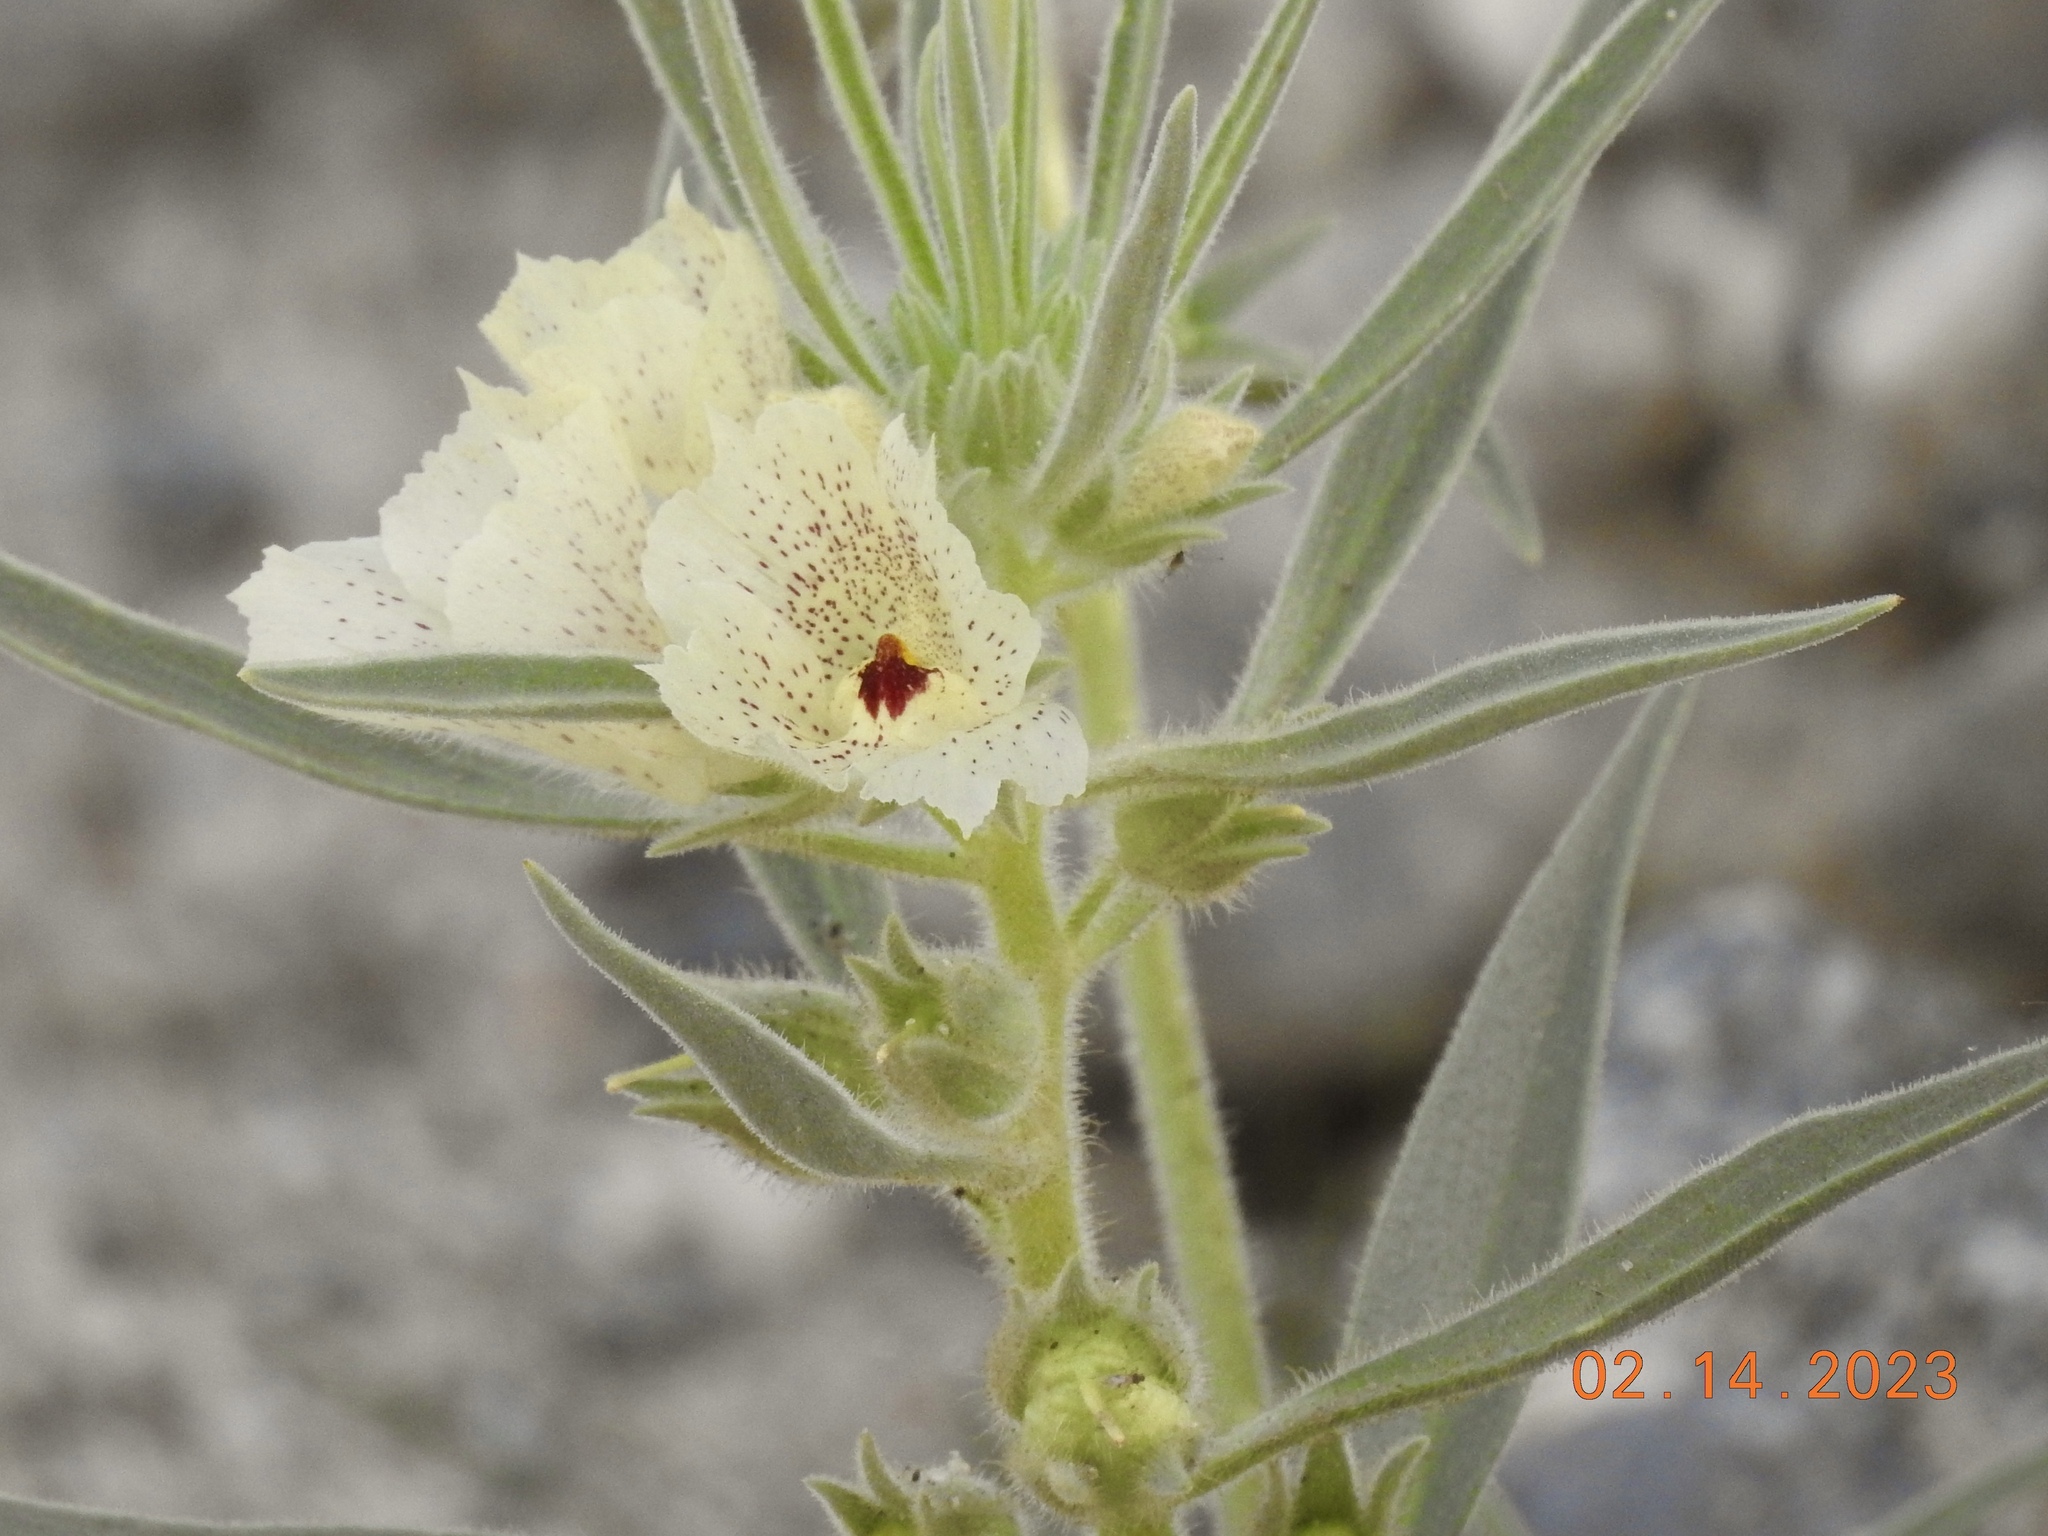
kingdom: Plantae
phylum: Tracheophyta
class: Magnoliopsida
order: Lamiales
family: Plantaginaceae
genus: Mohavea
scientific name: Mohavea confertiflora
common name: Ghost flower
